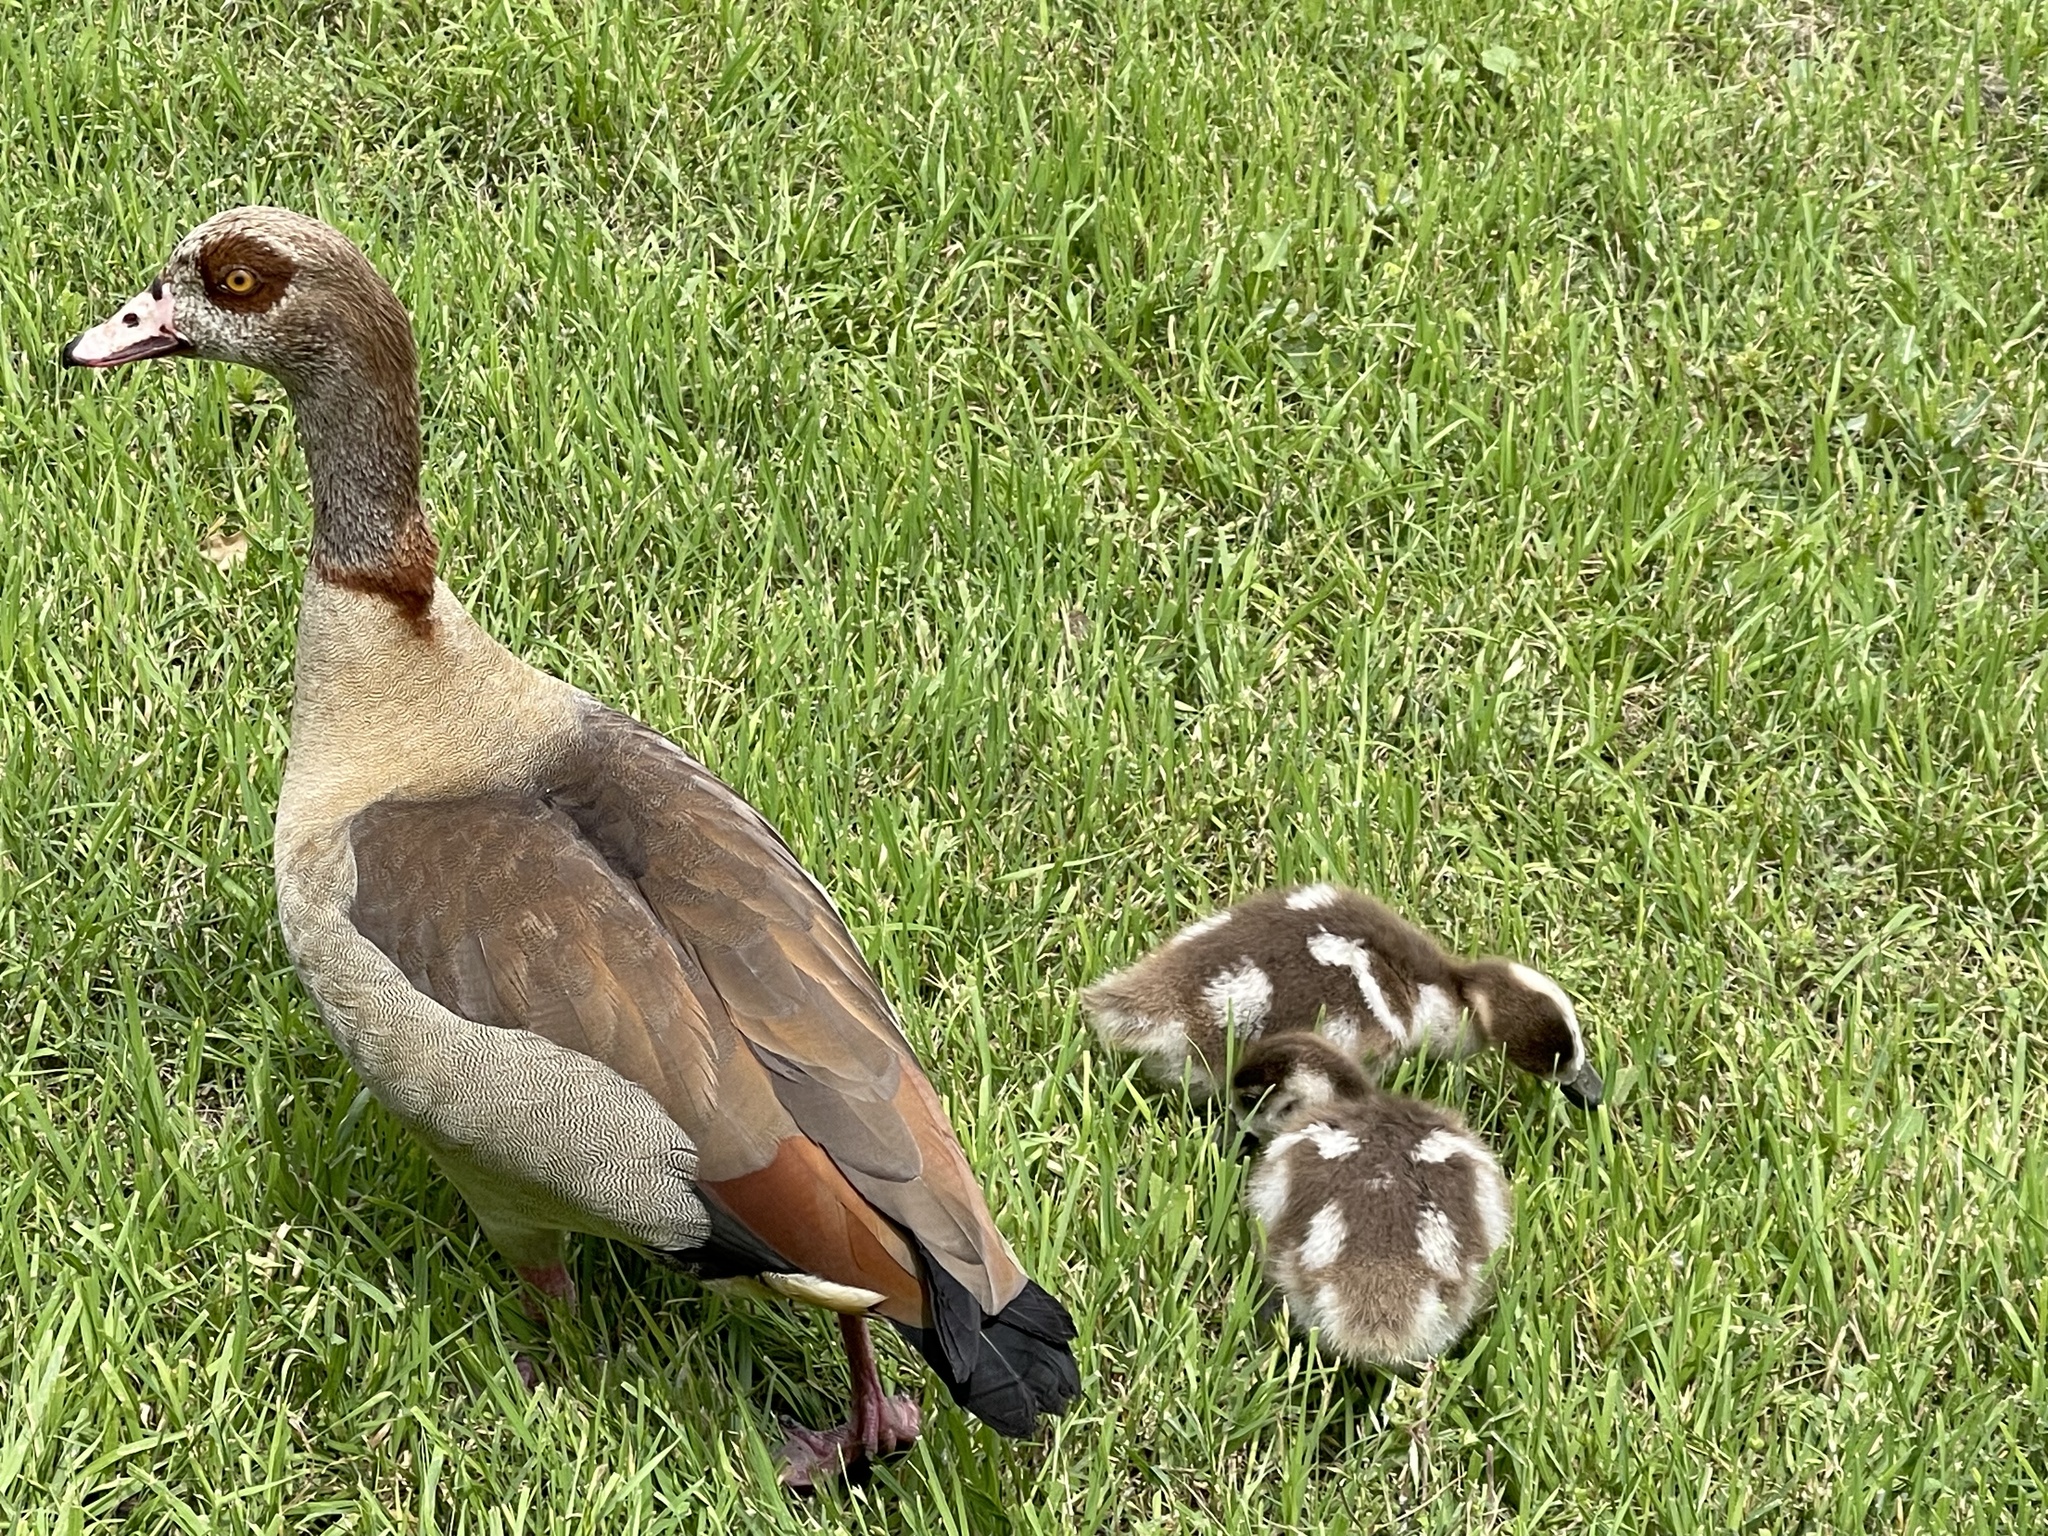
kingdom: Animalia
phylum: Chordata
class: Aves
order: Anseriformes
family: Anatidae
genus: Alopochen
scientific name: Alopochen aegyptiaca
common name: Egyptian goose
